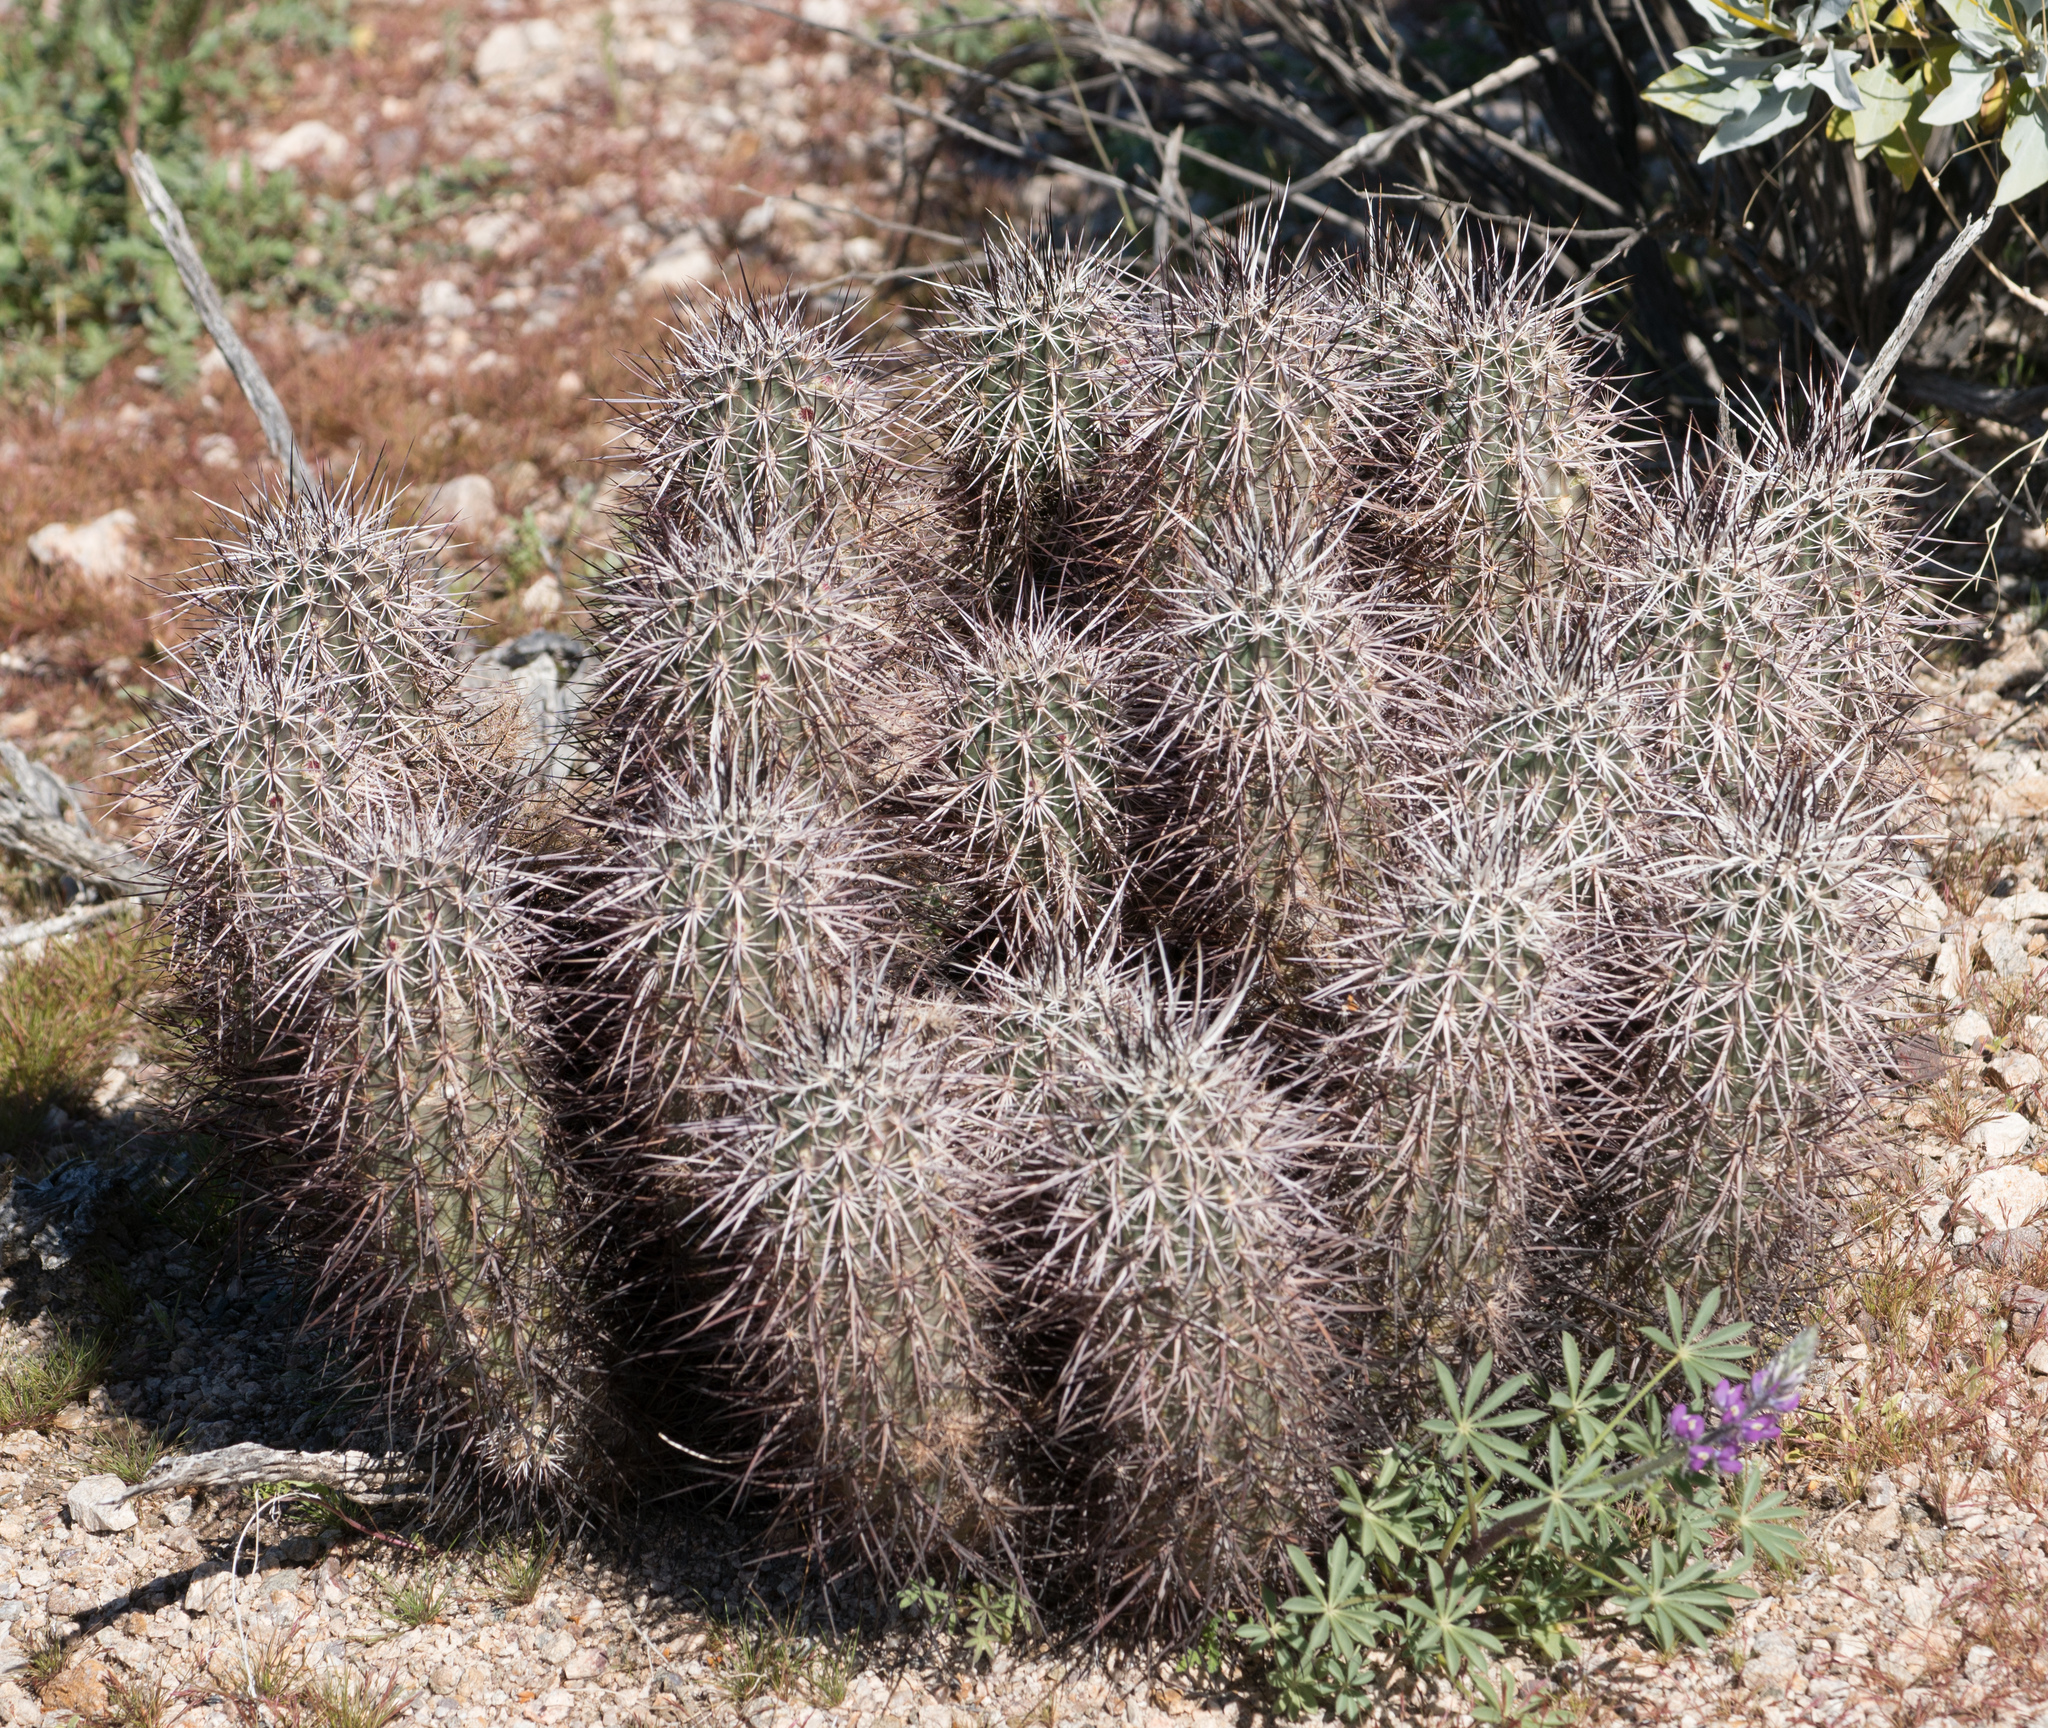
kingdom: Plantae
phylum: Tracheophyta
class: Magnoliopsida
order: Caryophyllales
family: Cactaceae
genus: Echinocereus
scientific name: Echinocereus engelmannii
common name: Engelmann's hedgehog cactus
